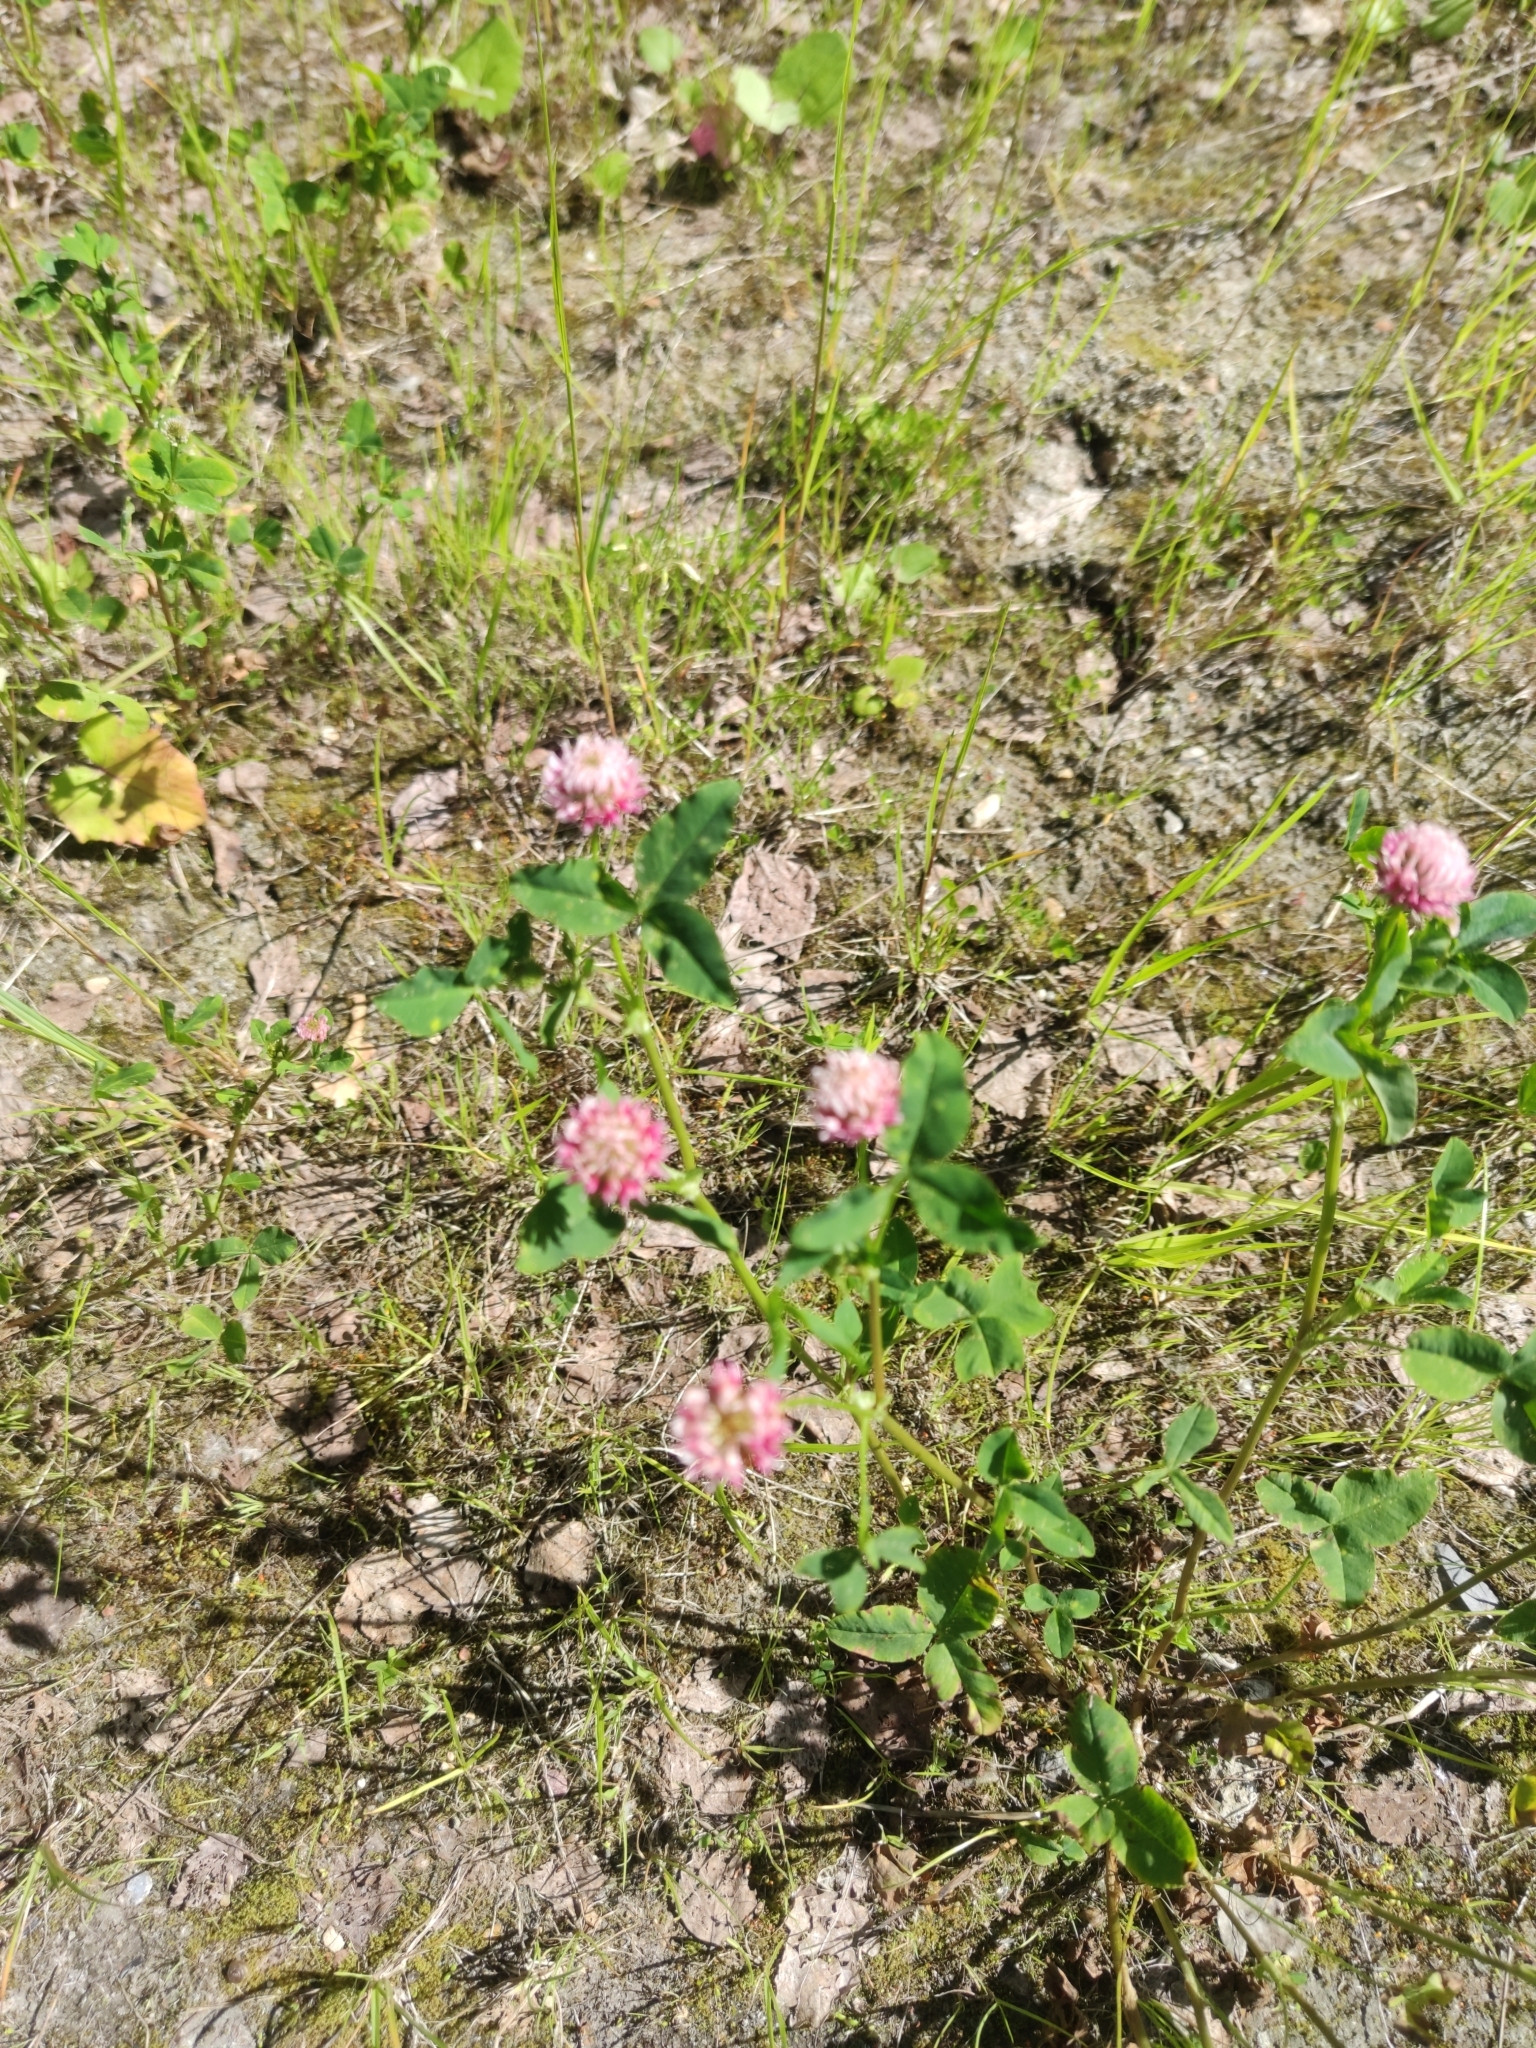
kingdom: Plantae
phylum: Tracheophyta
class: Magnoliopsida
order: Fabales
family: Fabaceae
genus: Trifolium
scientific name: Trifolium hybridum
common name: Alsike clover
